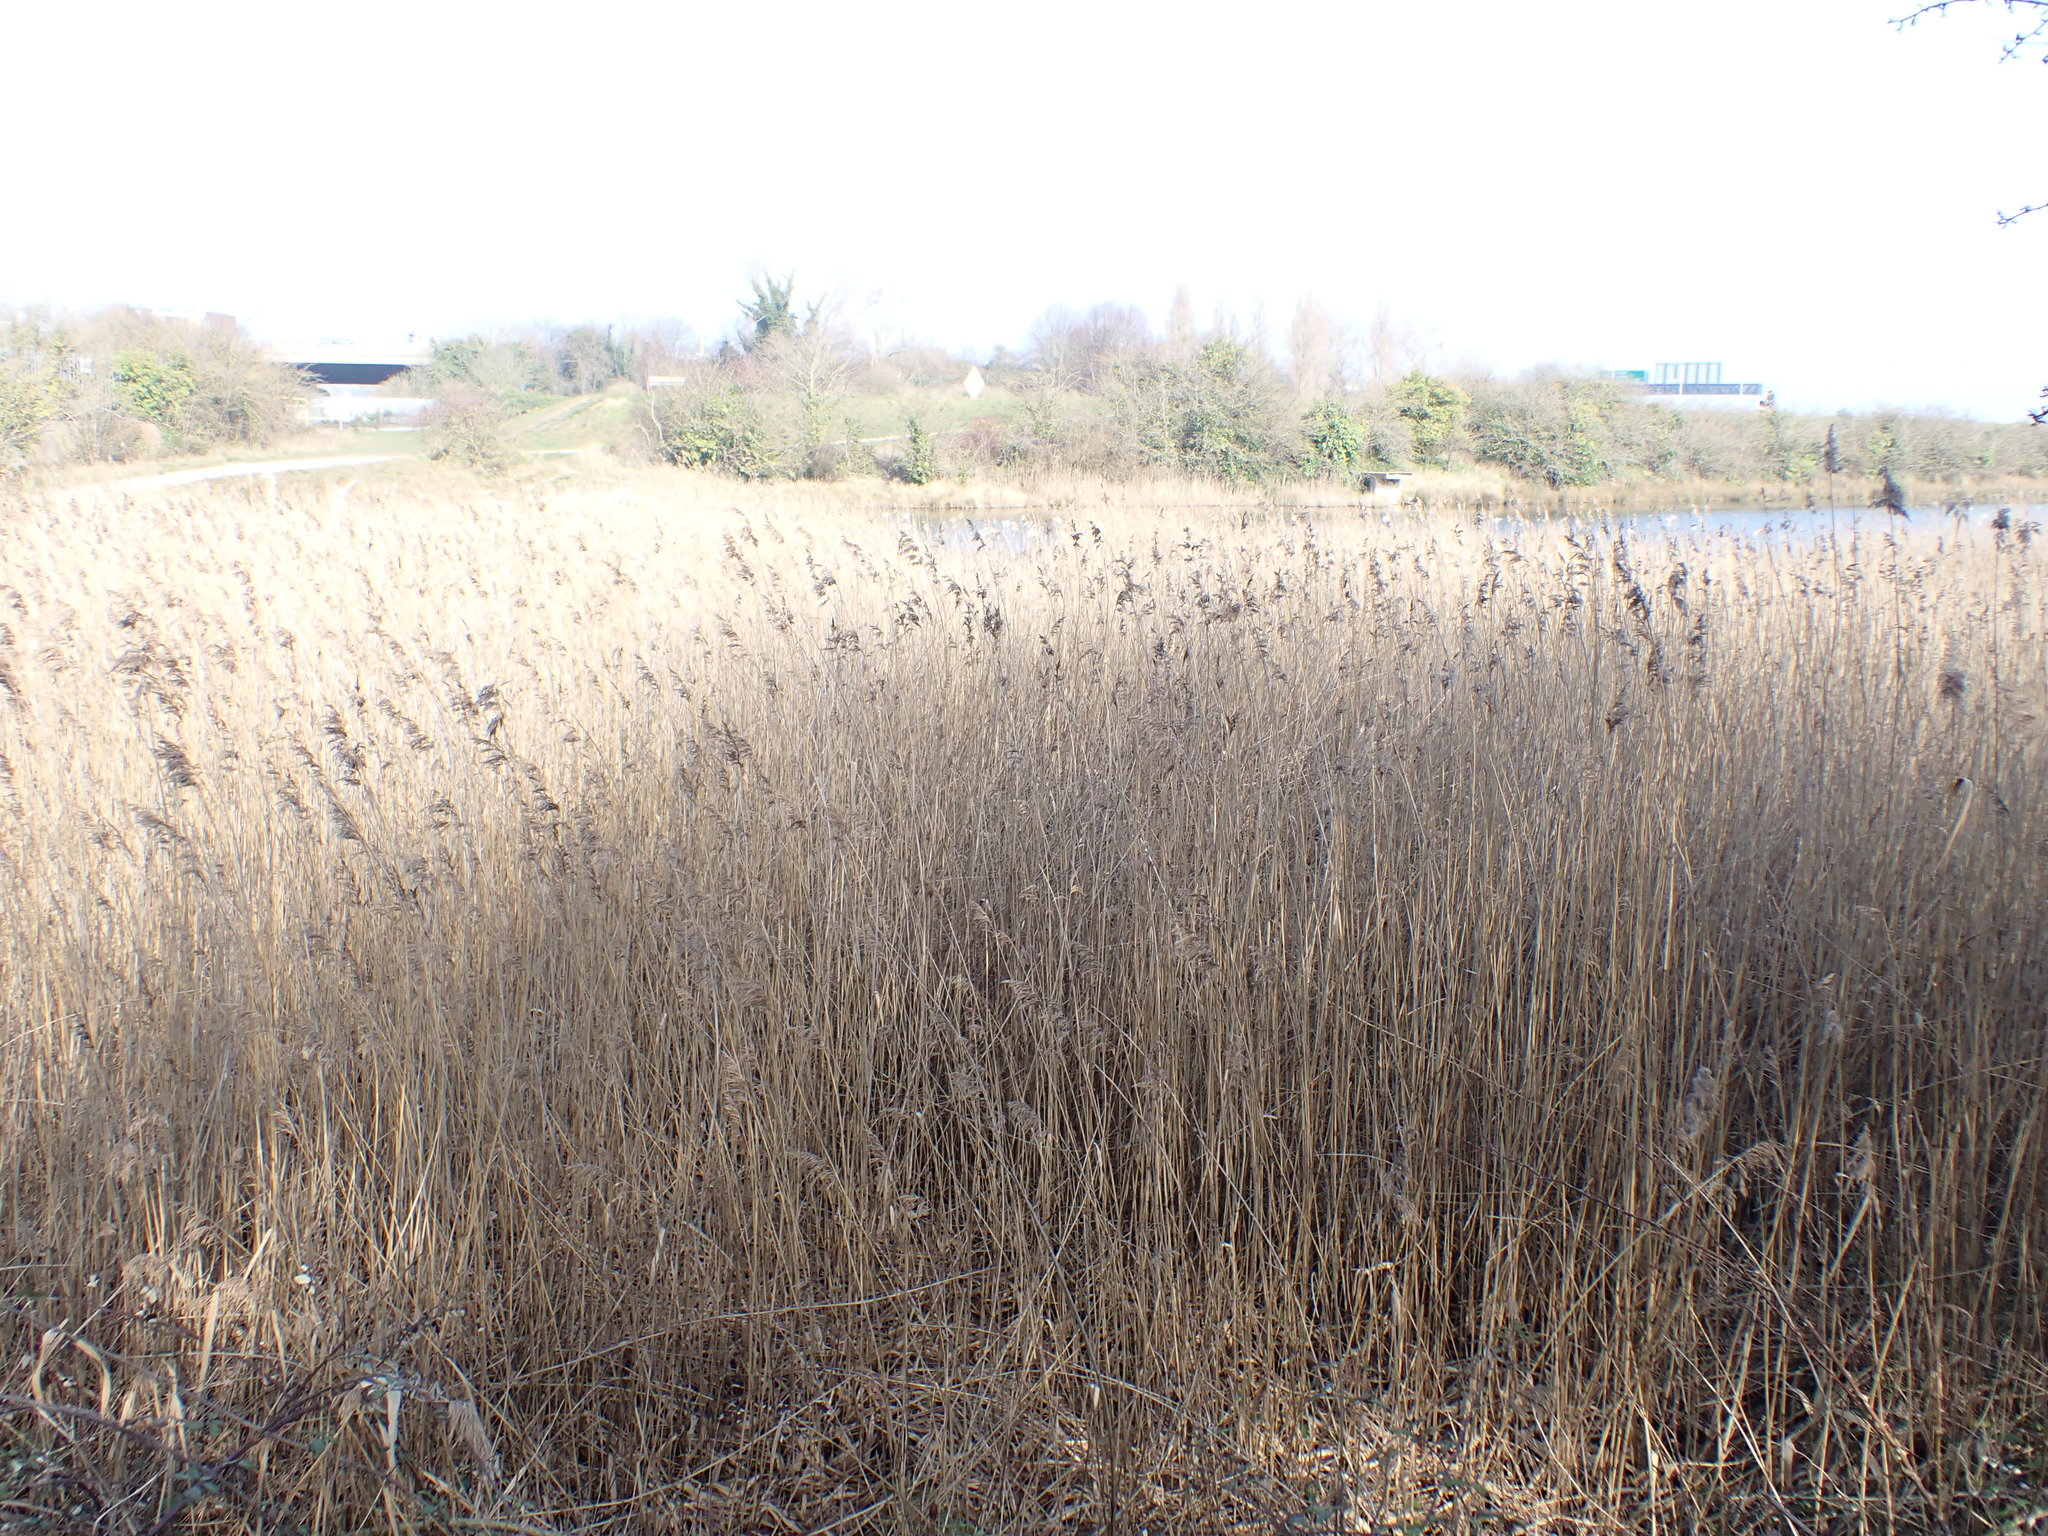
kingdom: Plantae
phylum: Tracheophyta
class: Liliopsida
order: Poales
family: Poaceae
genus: Phragmites
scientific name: Phragmites australis
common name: Common reed
